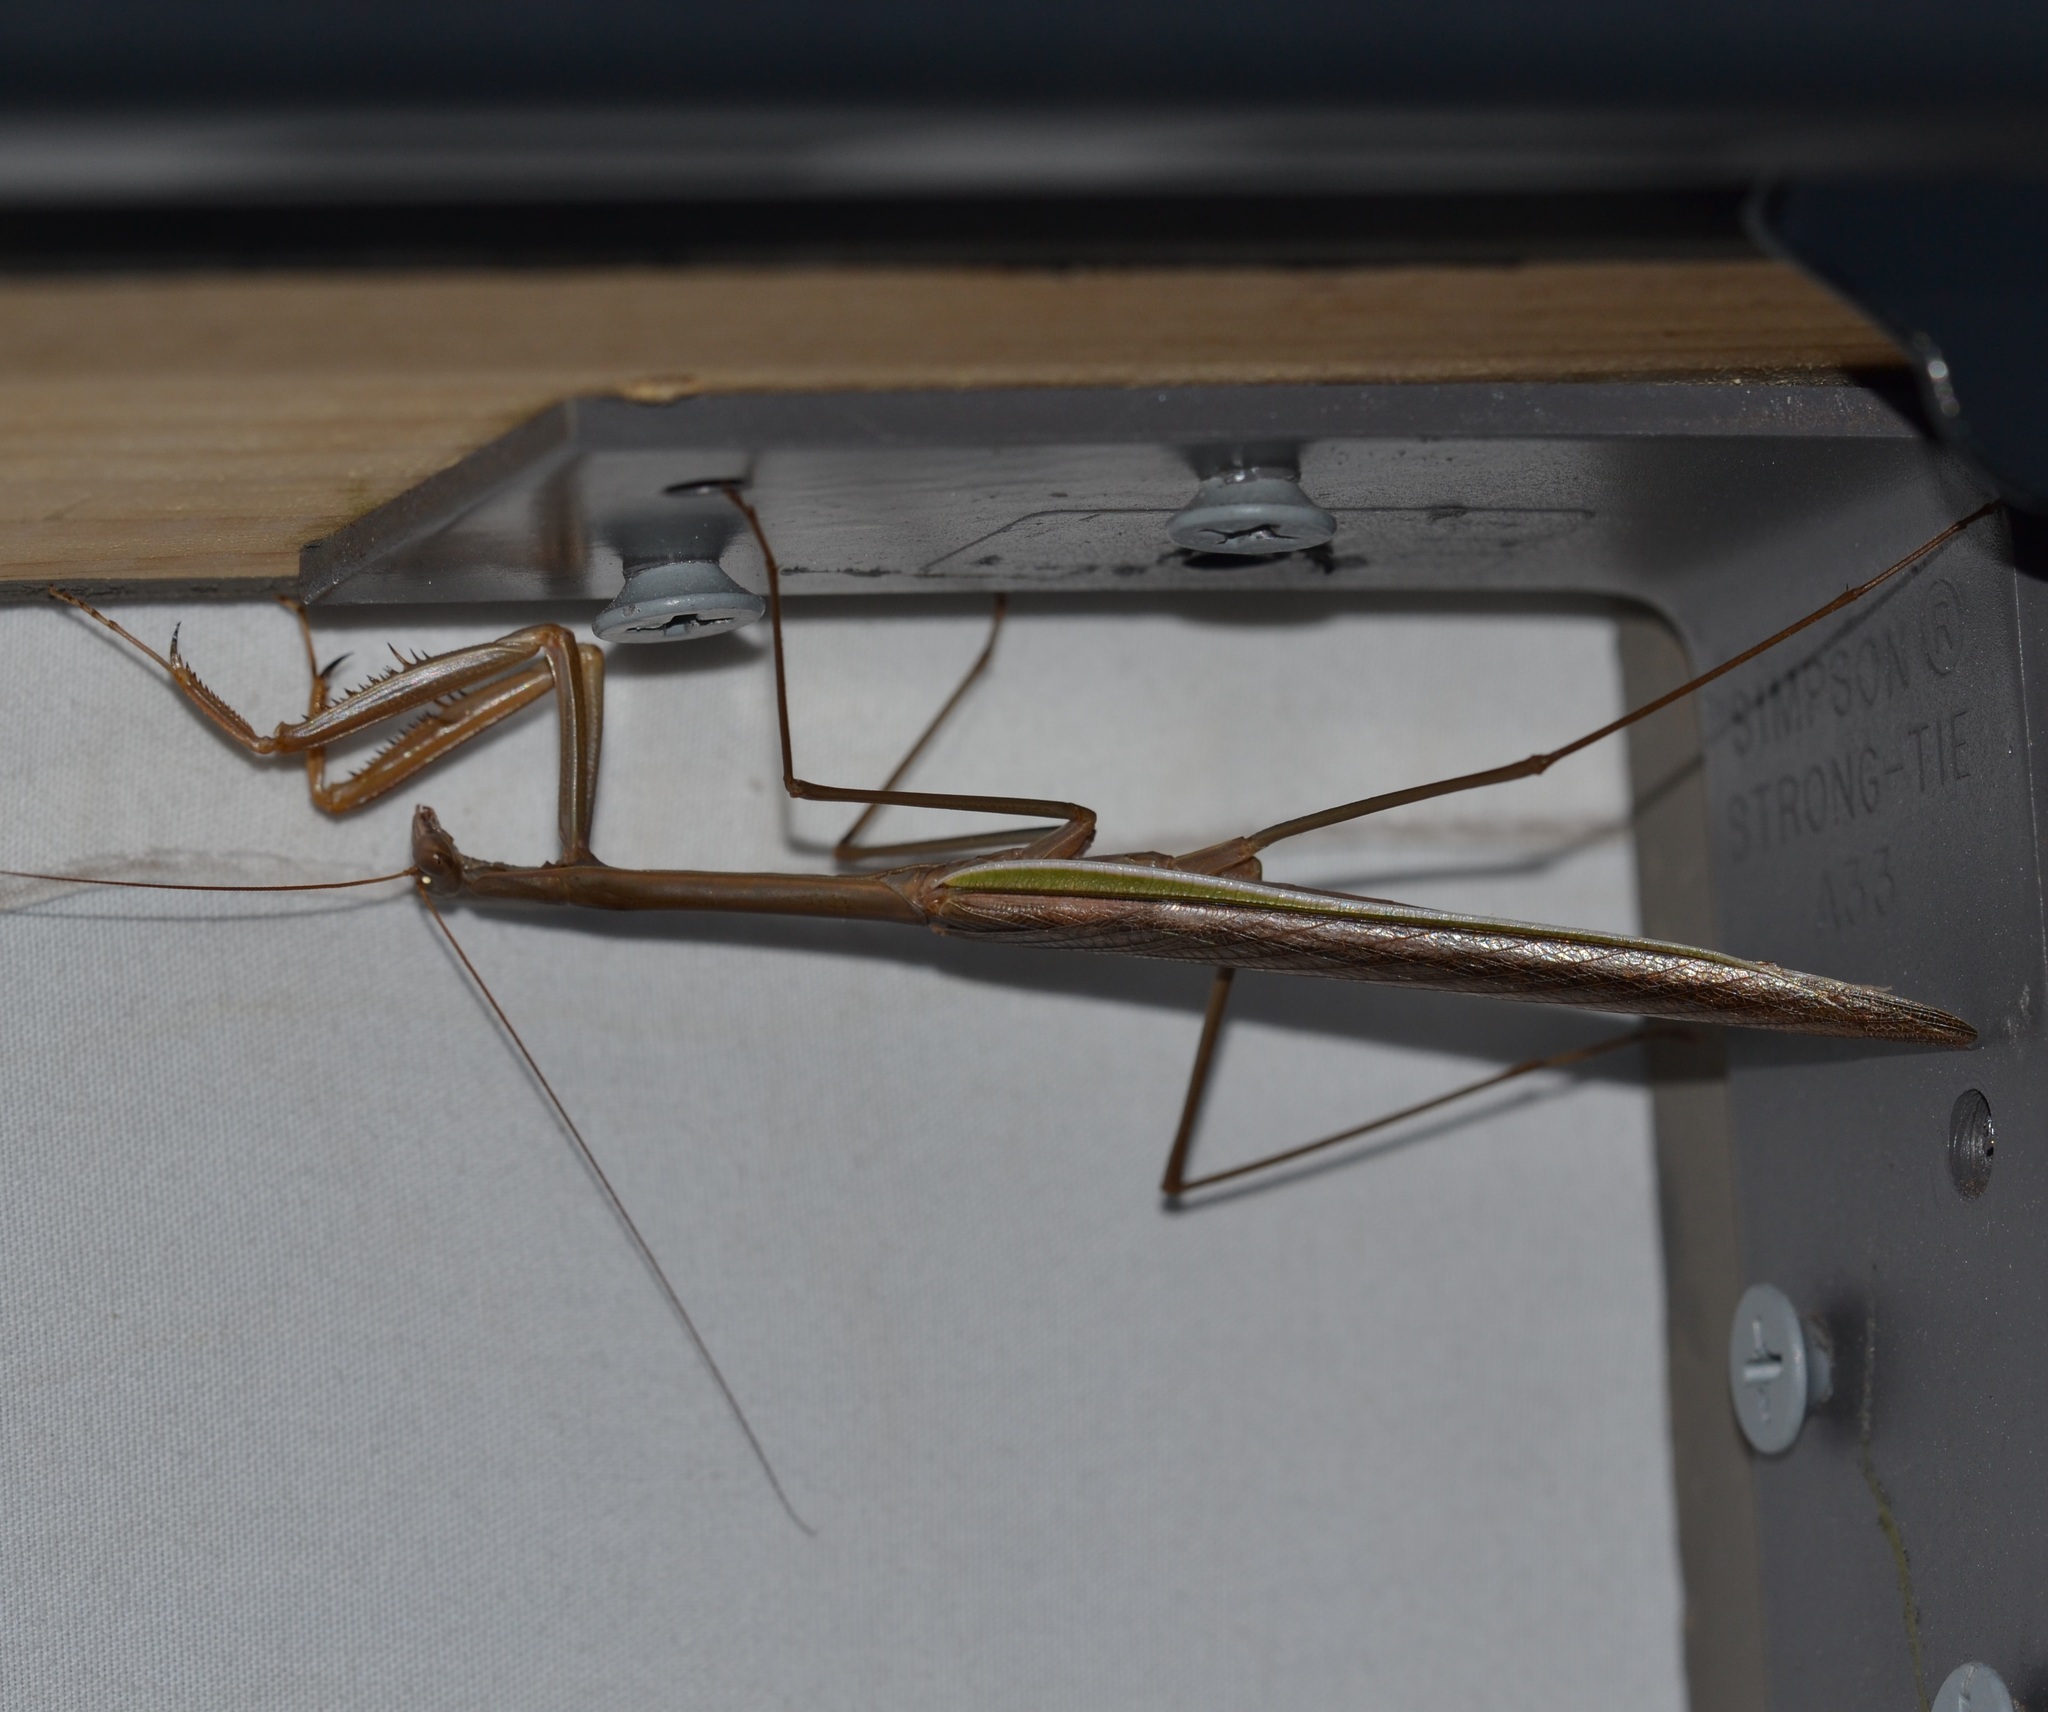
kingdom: Animalia
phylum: Arthropoda
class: Insecta
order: Mantodea
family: Mantidae
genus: Tenodera
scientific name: Tenodera australasiae
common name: Purple-winged mantis
